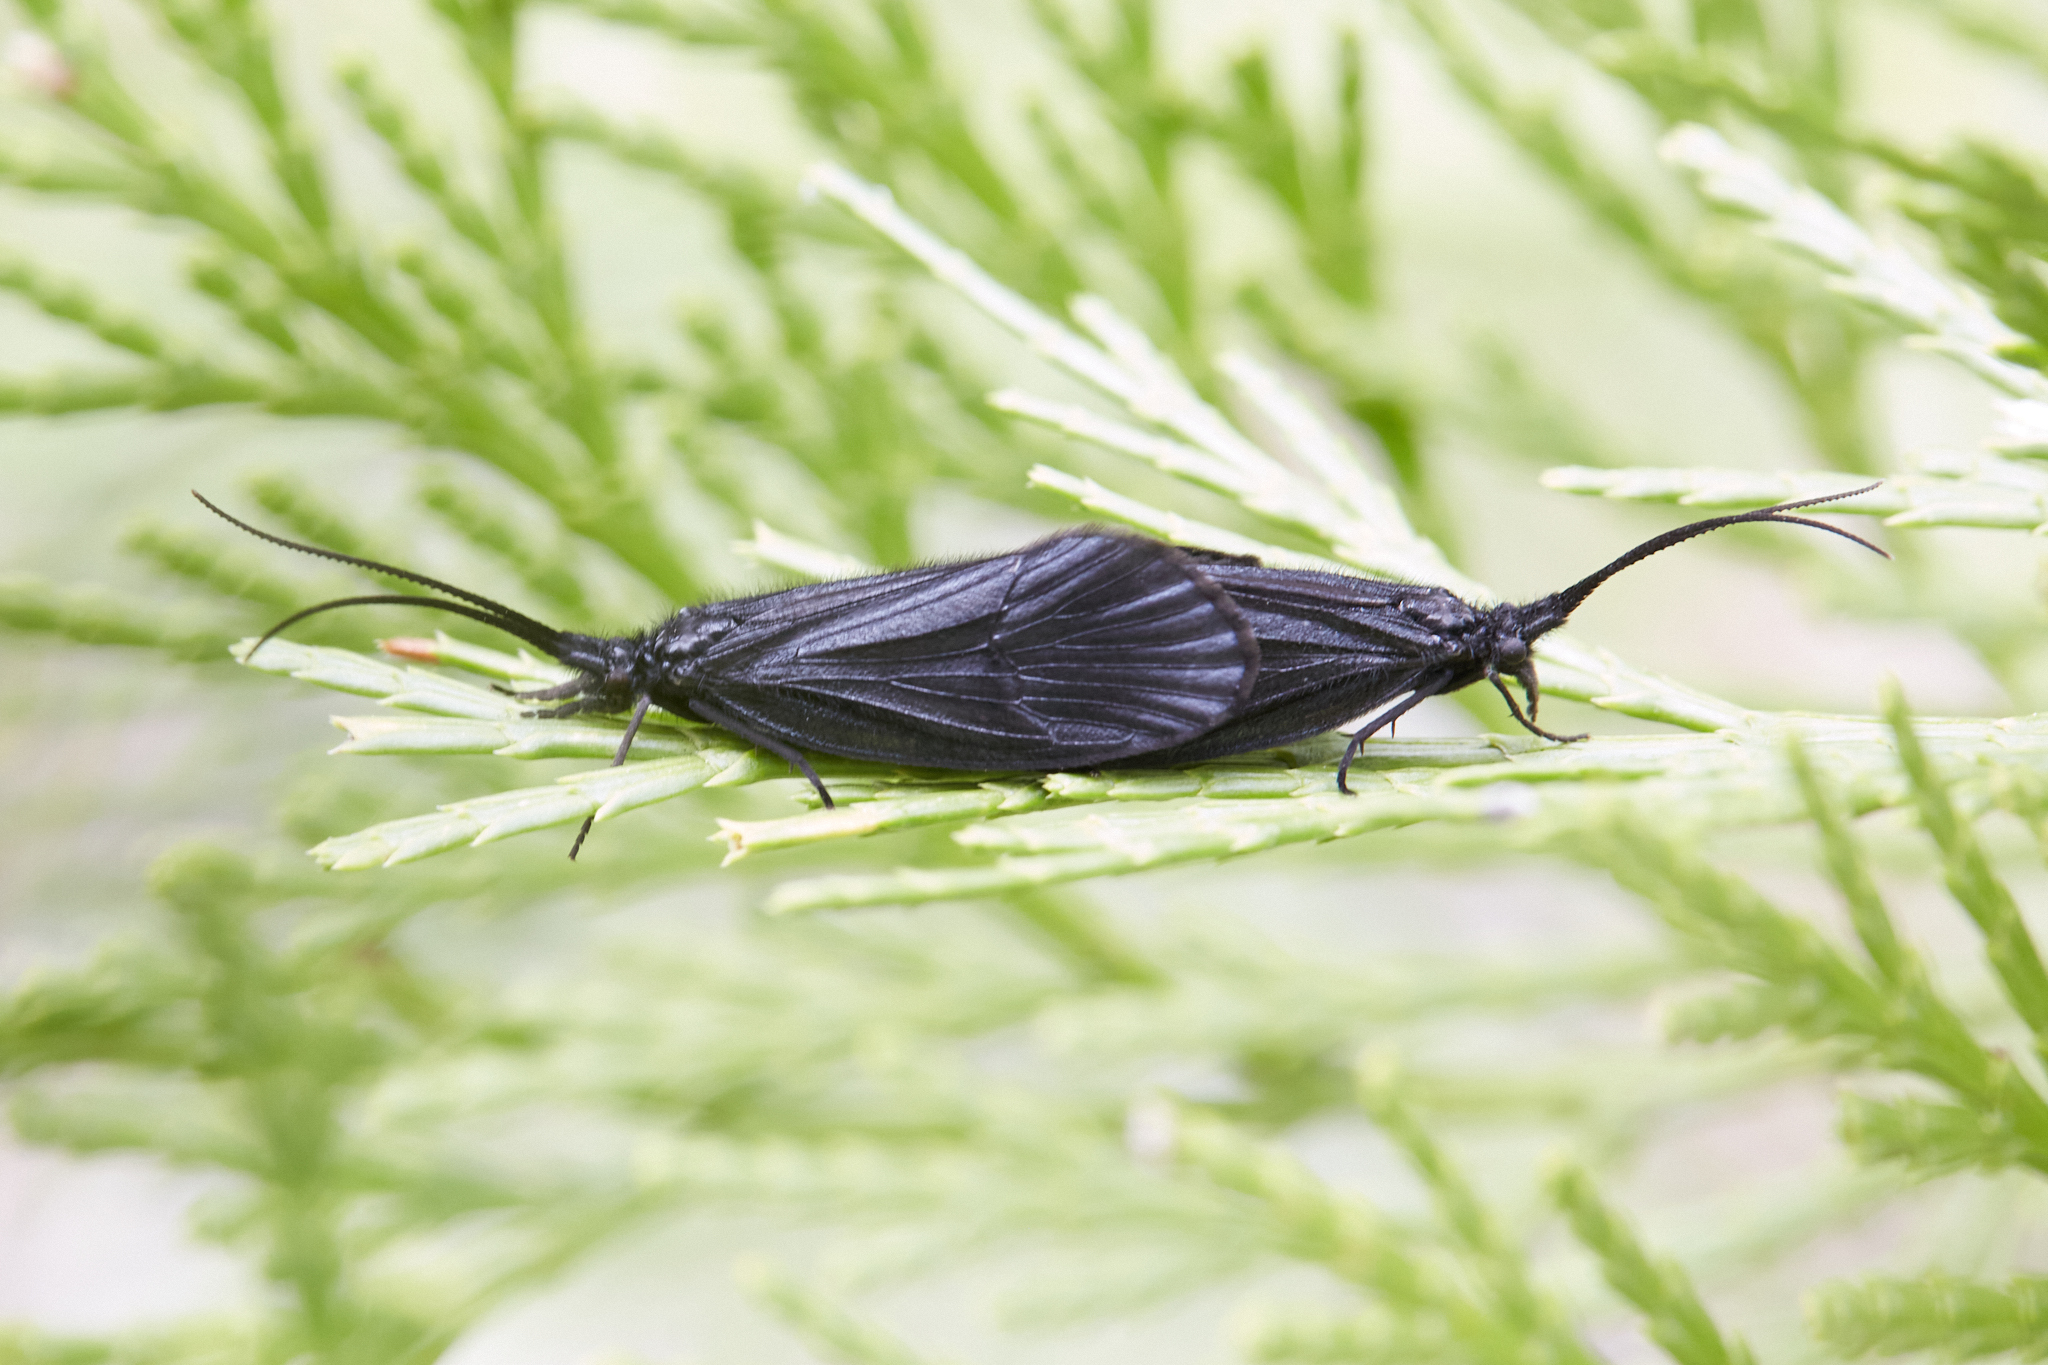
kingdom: Animalia
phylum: Arthropoda
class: Insecta
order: Trichoptera
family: Odontoceridae
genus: Namamyia
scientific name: Namamyia plutonis
